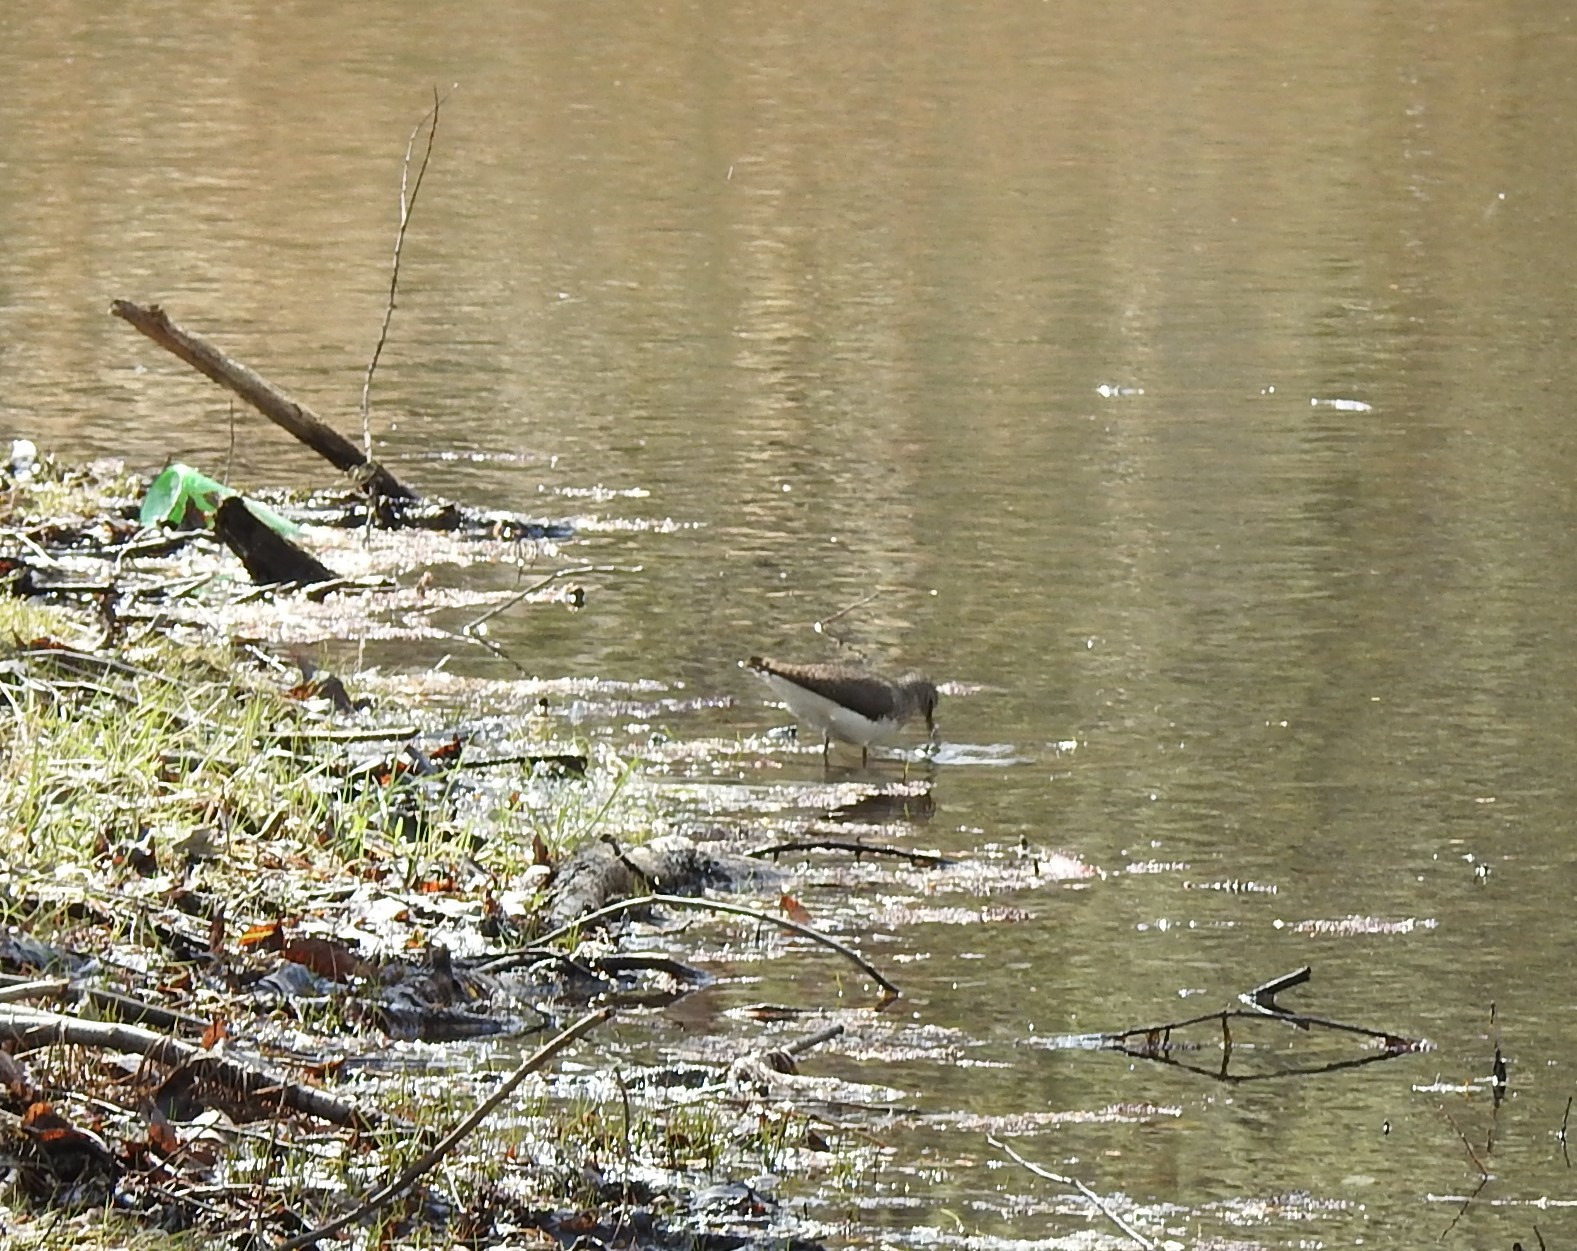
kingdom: Animalia
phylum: Chordata
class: Aves
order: Charadriiformes
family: Scolopacidae
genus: Tringa
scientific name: Tringa ochropus
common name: Green sandpiper
